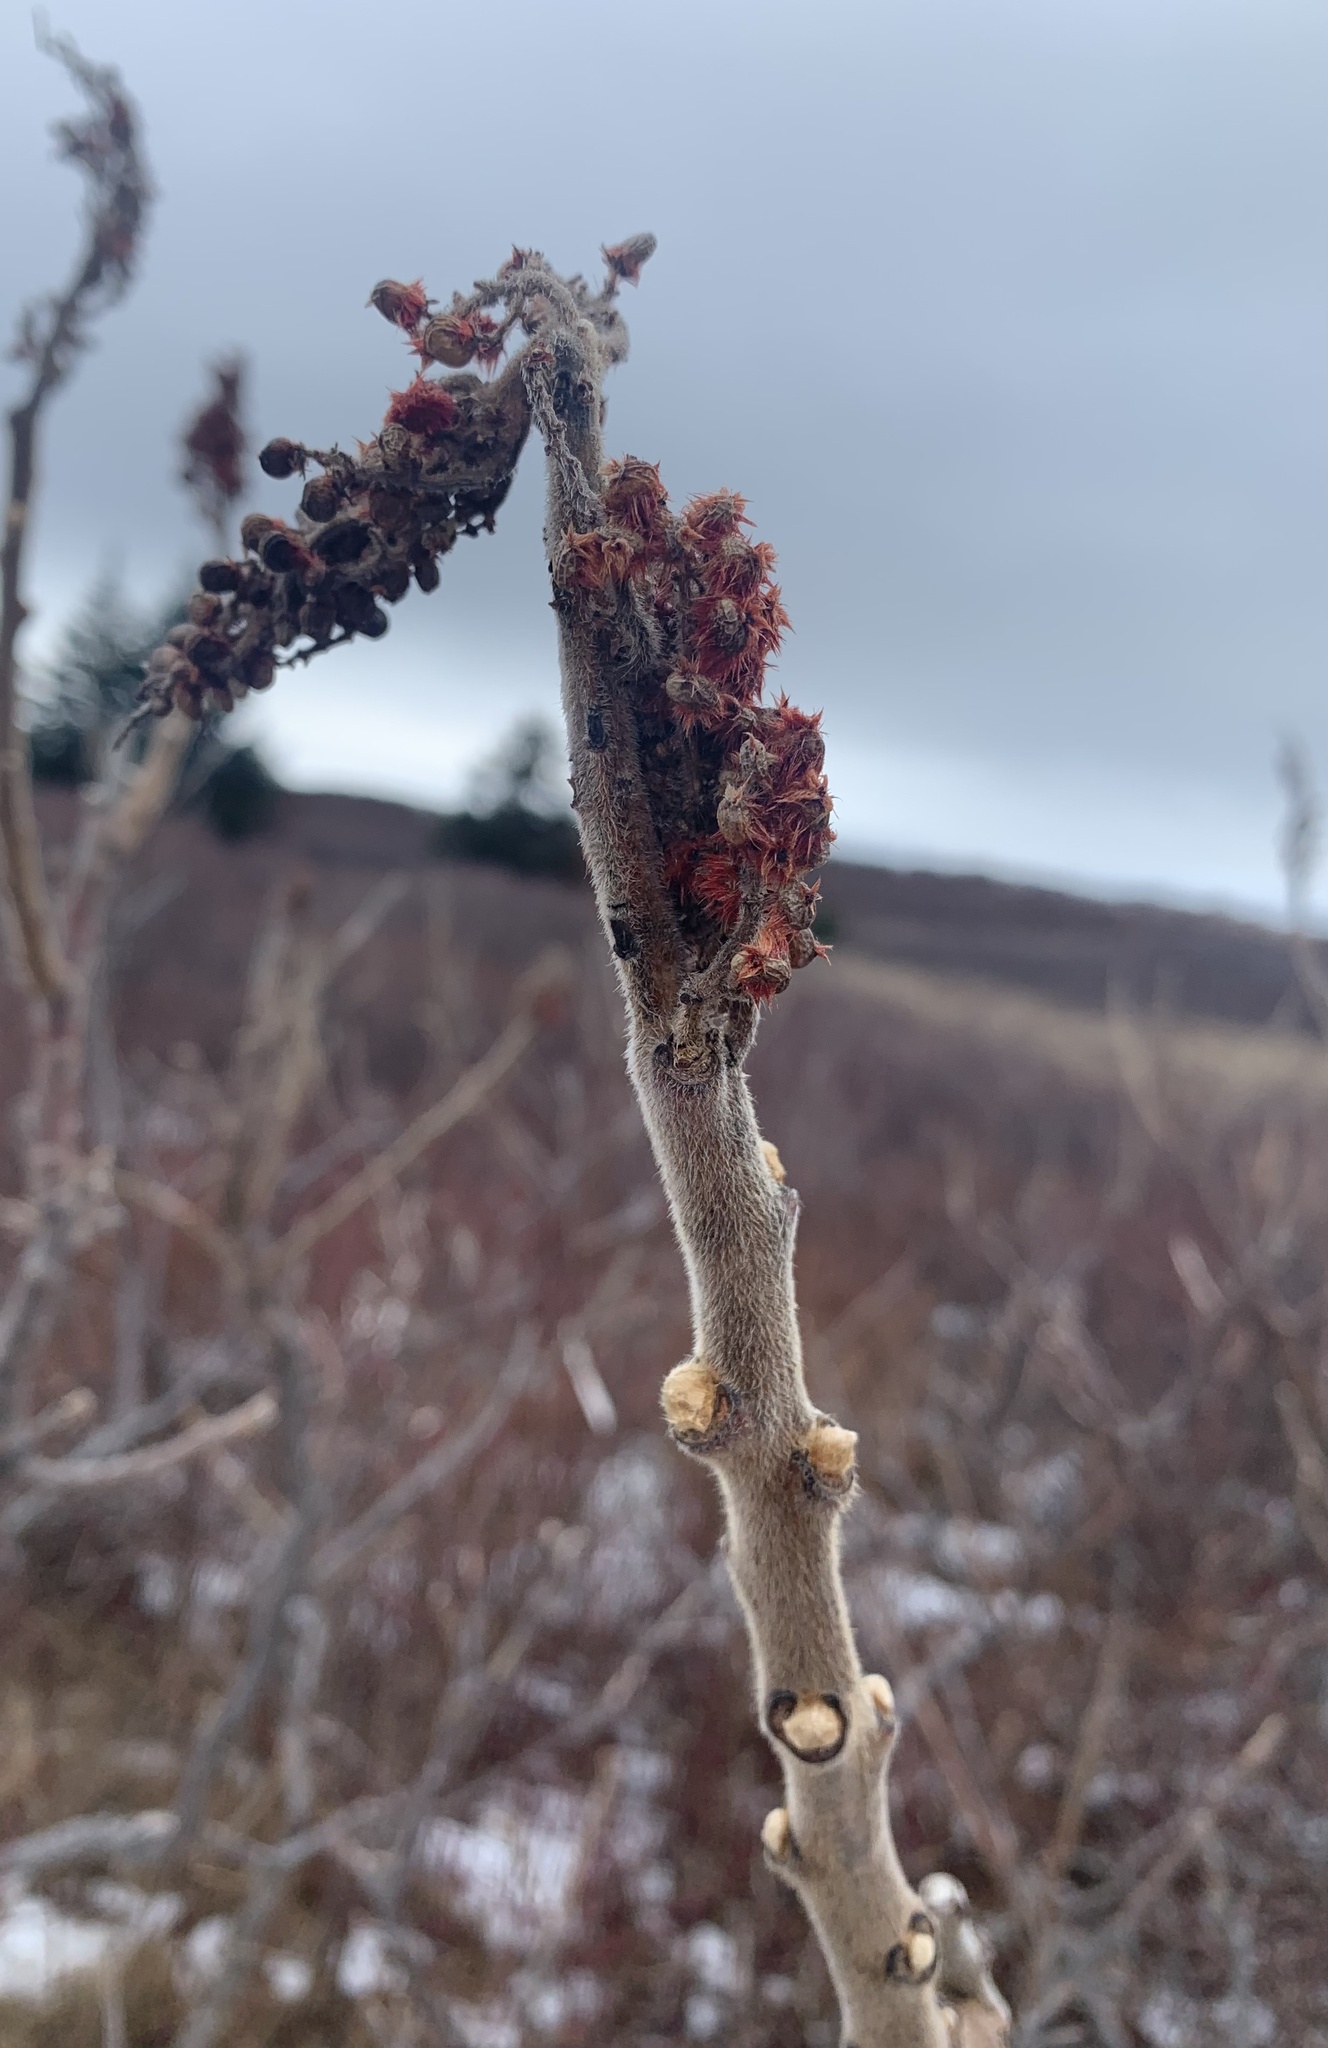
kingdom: Plantae
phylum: Tracheophyta
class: Magnoliopsida
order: Sapindales
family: Anacardiaceae
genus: Rhus
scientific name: Rhus typhina
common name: Staghorn sumac
